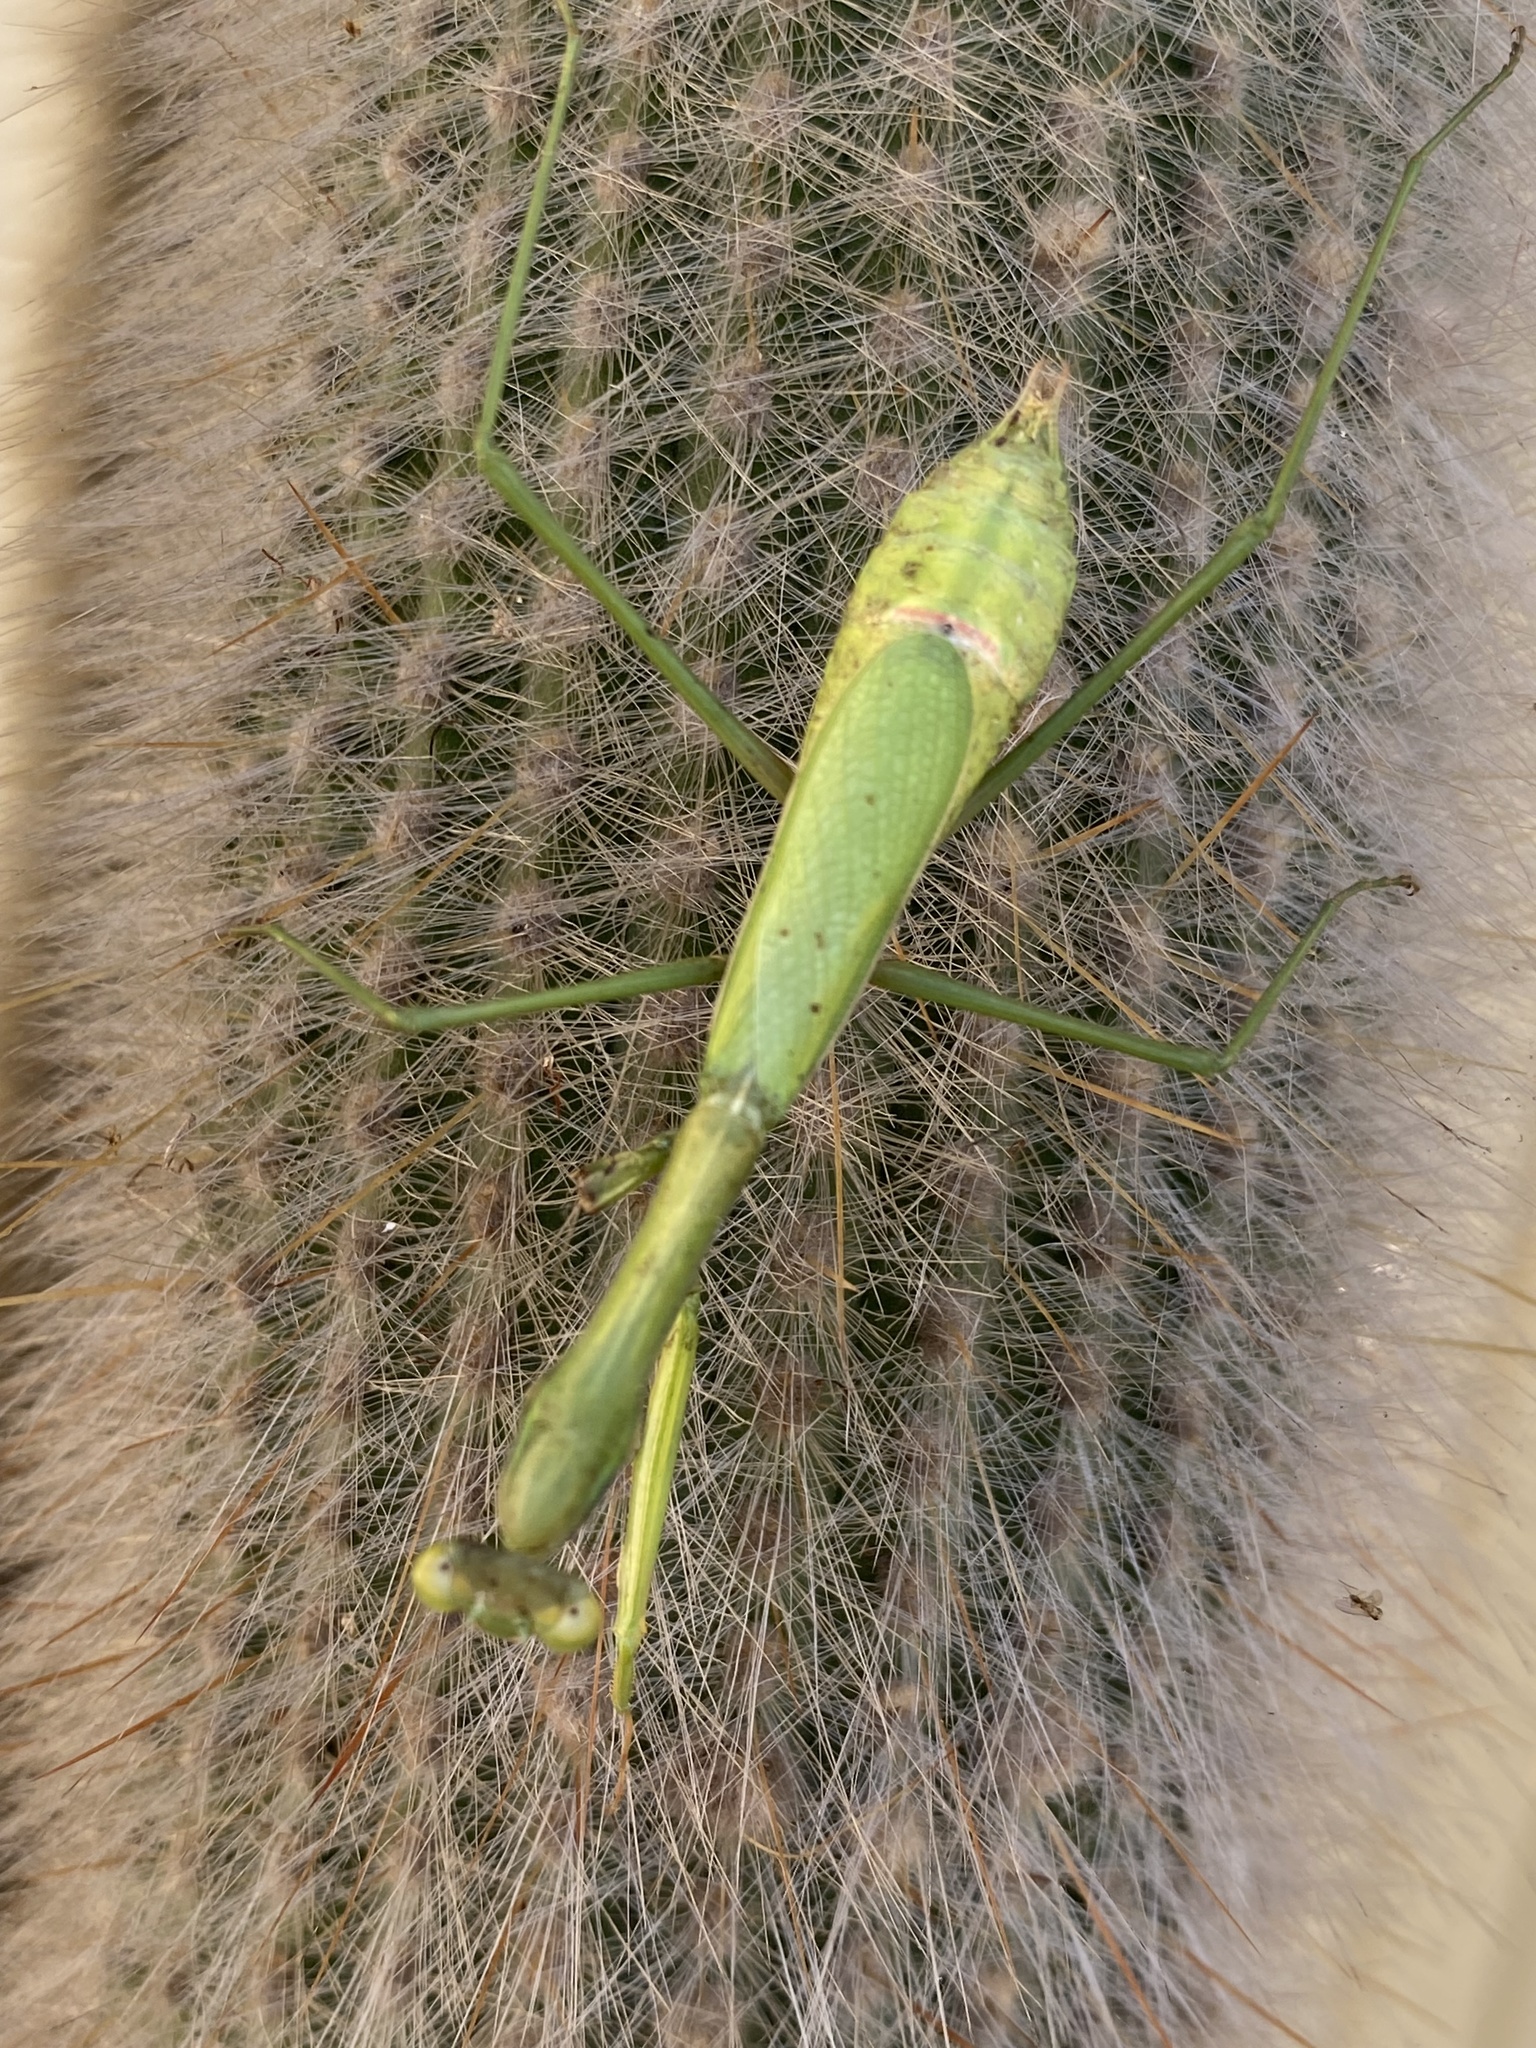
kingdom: Animalia
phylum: Arthropoda
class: Insecta
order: Mantodea
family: Mantidae
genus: Pseudomantis
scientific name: Pseudomantis albofimbriata
